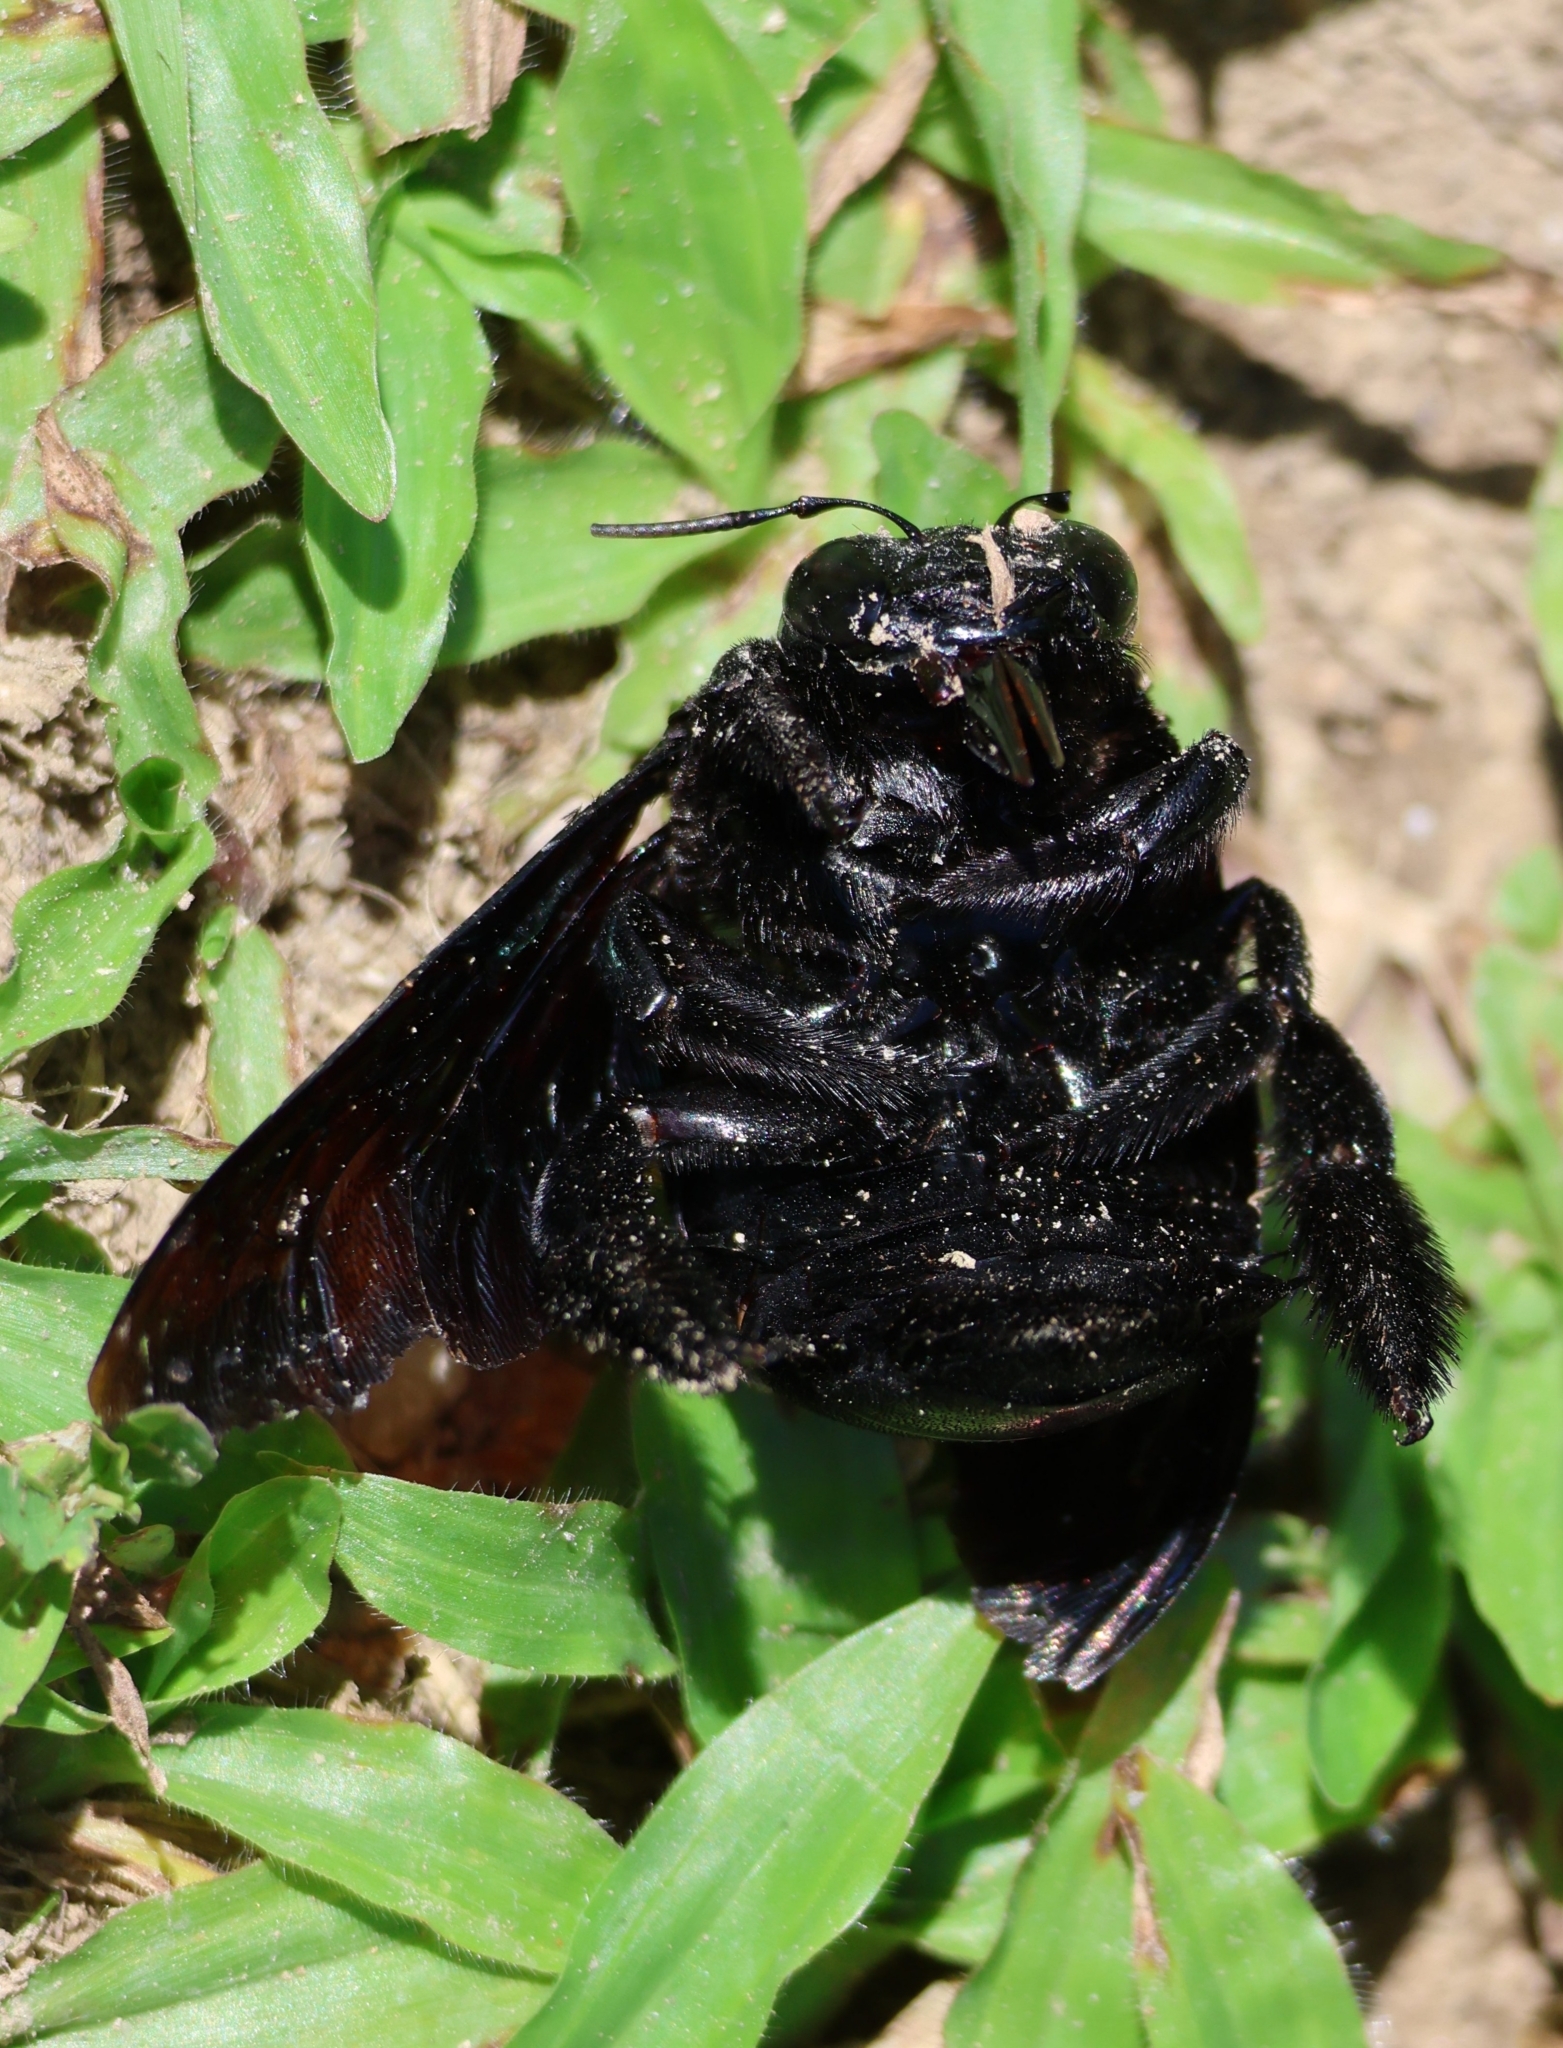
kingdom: Animalia
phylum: Arthropoda
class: Insecta
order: Hymenoptera
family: Apidae
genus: Xylocopa
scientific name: Xylocopa latipes
